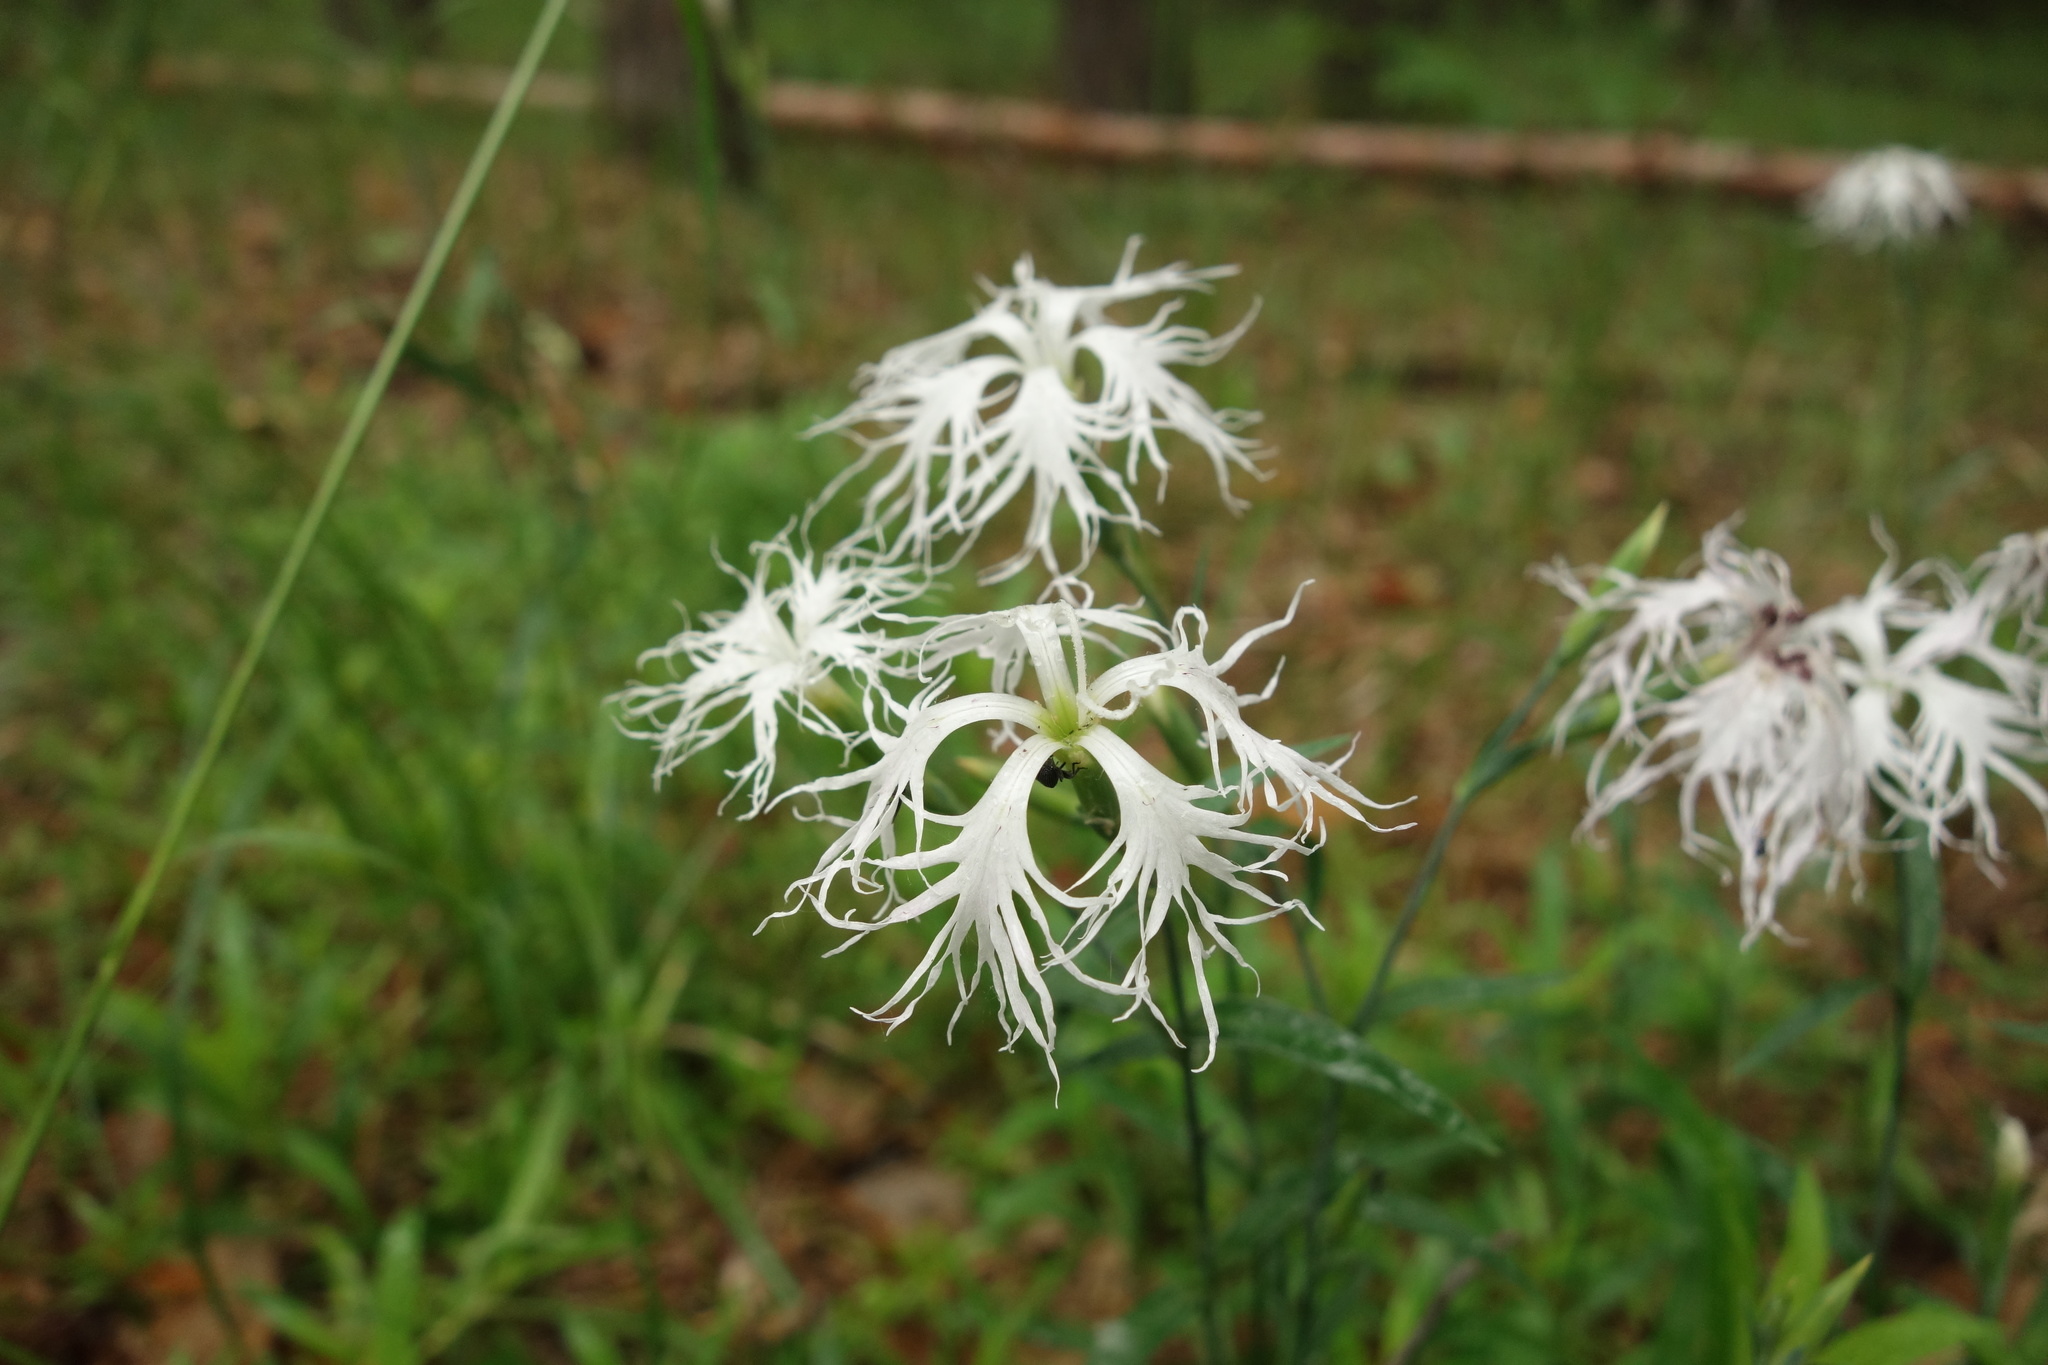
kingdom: Plantae
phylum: Tracheophyta
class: Magnoliopsida
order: Caryophyllales
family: Caryophyllaceae
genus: Dianthus
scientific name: Dianthus superbus
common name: Fringed pink
